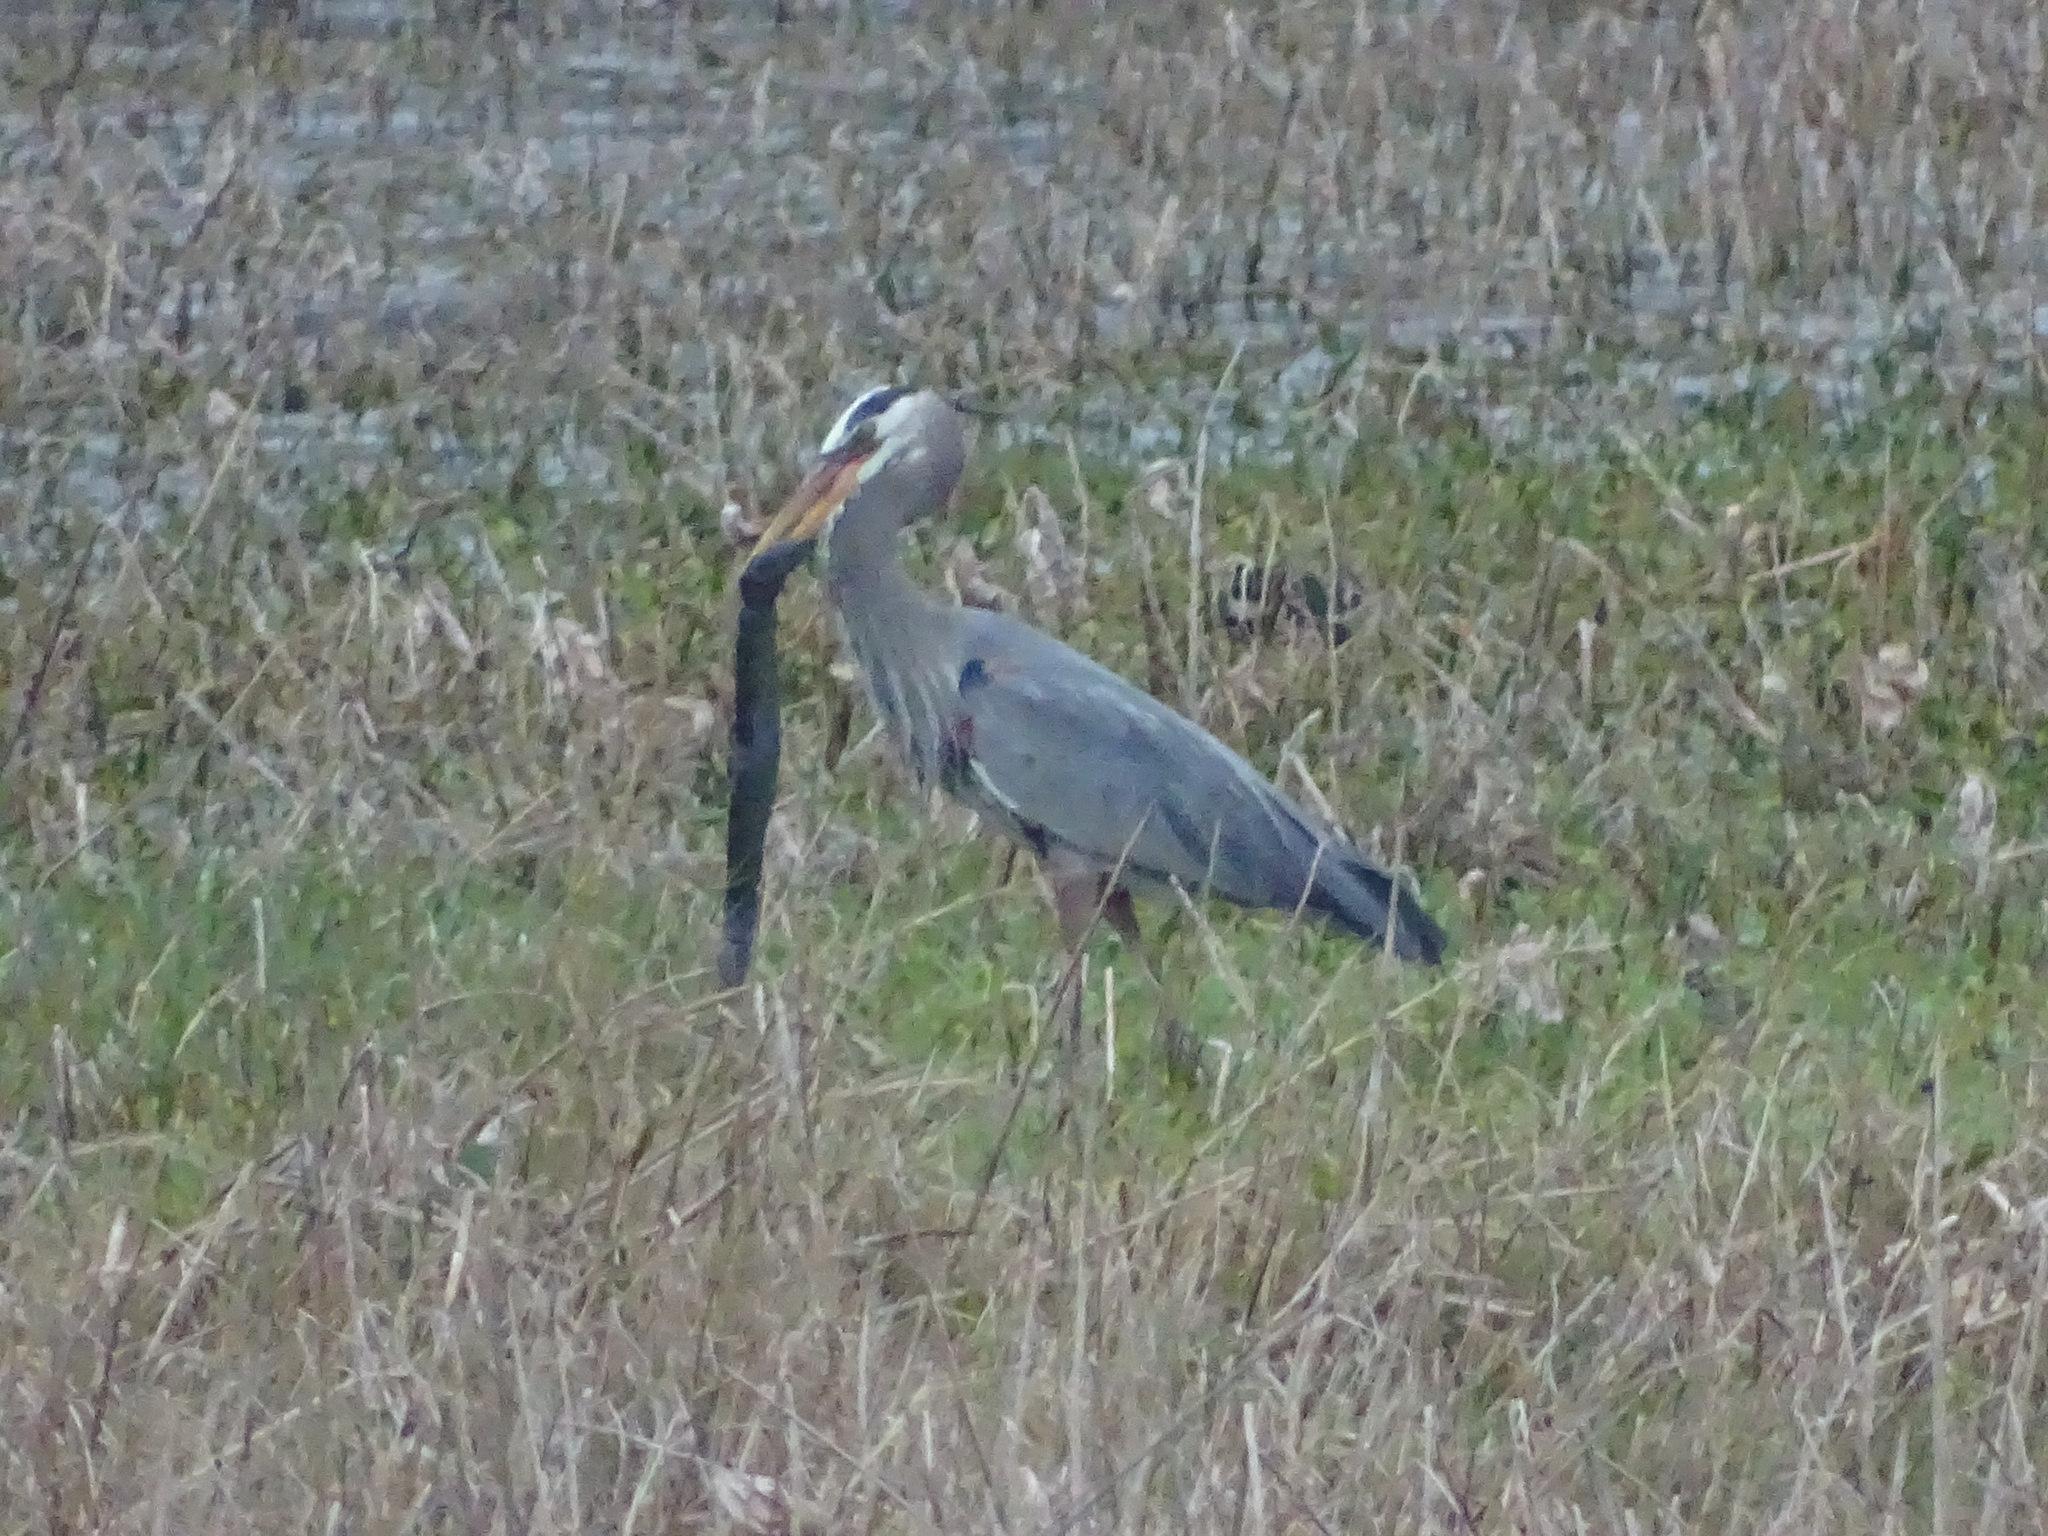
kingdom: Animalia
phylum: Chordata
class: Aves
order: Pelecaniformes
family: Ardeidae
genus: Ardea
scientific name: Ardea herodias
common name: Great blue heron
